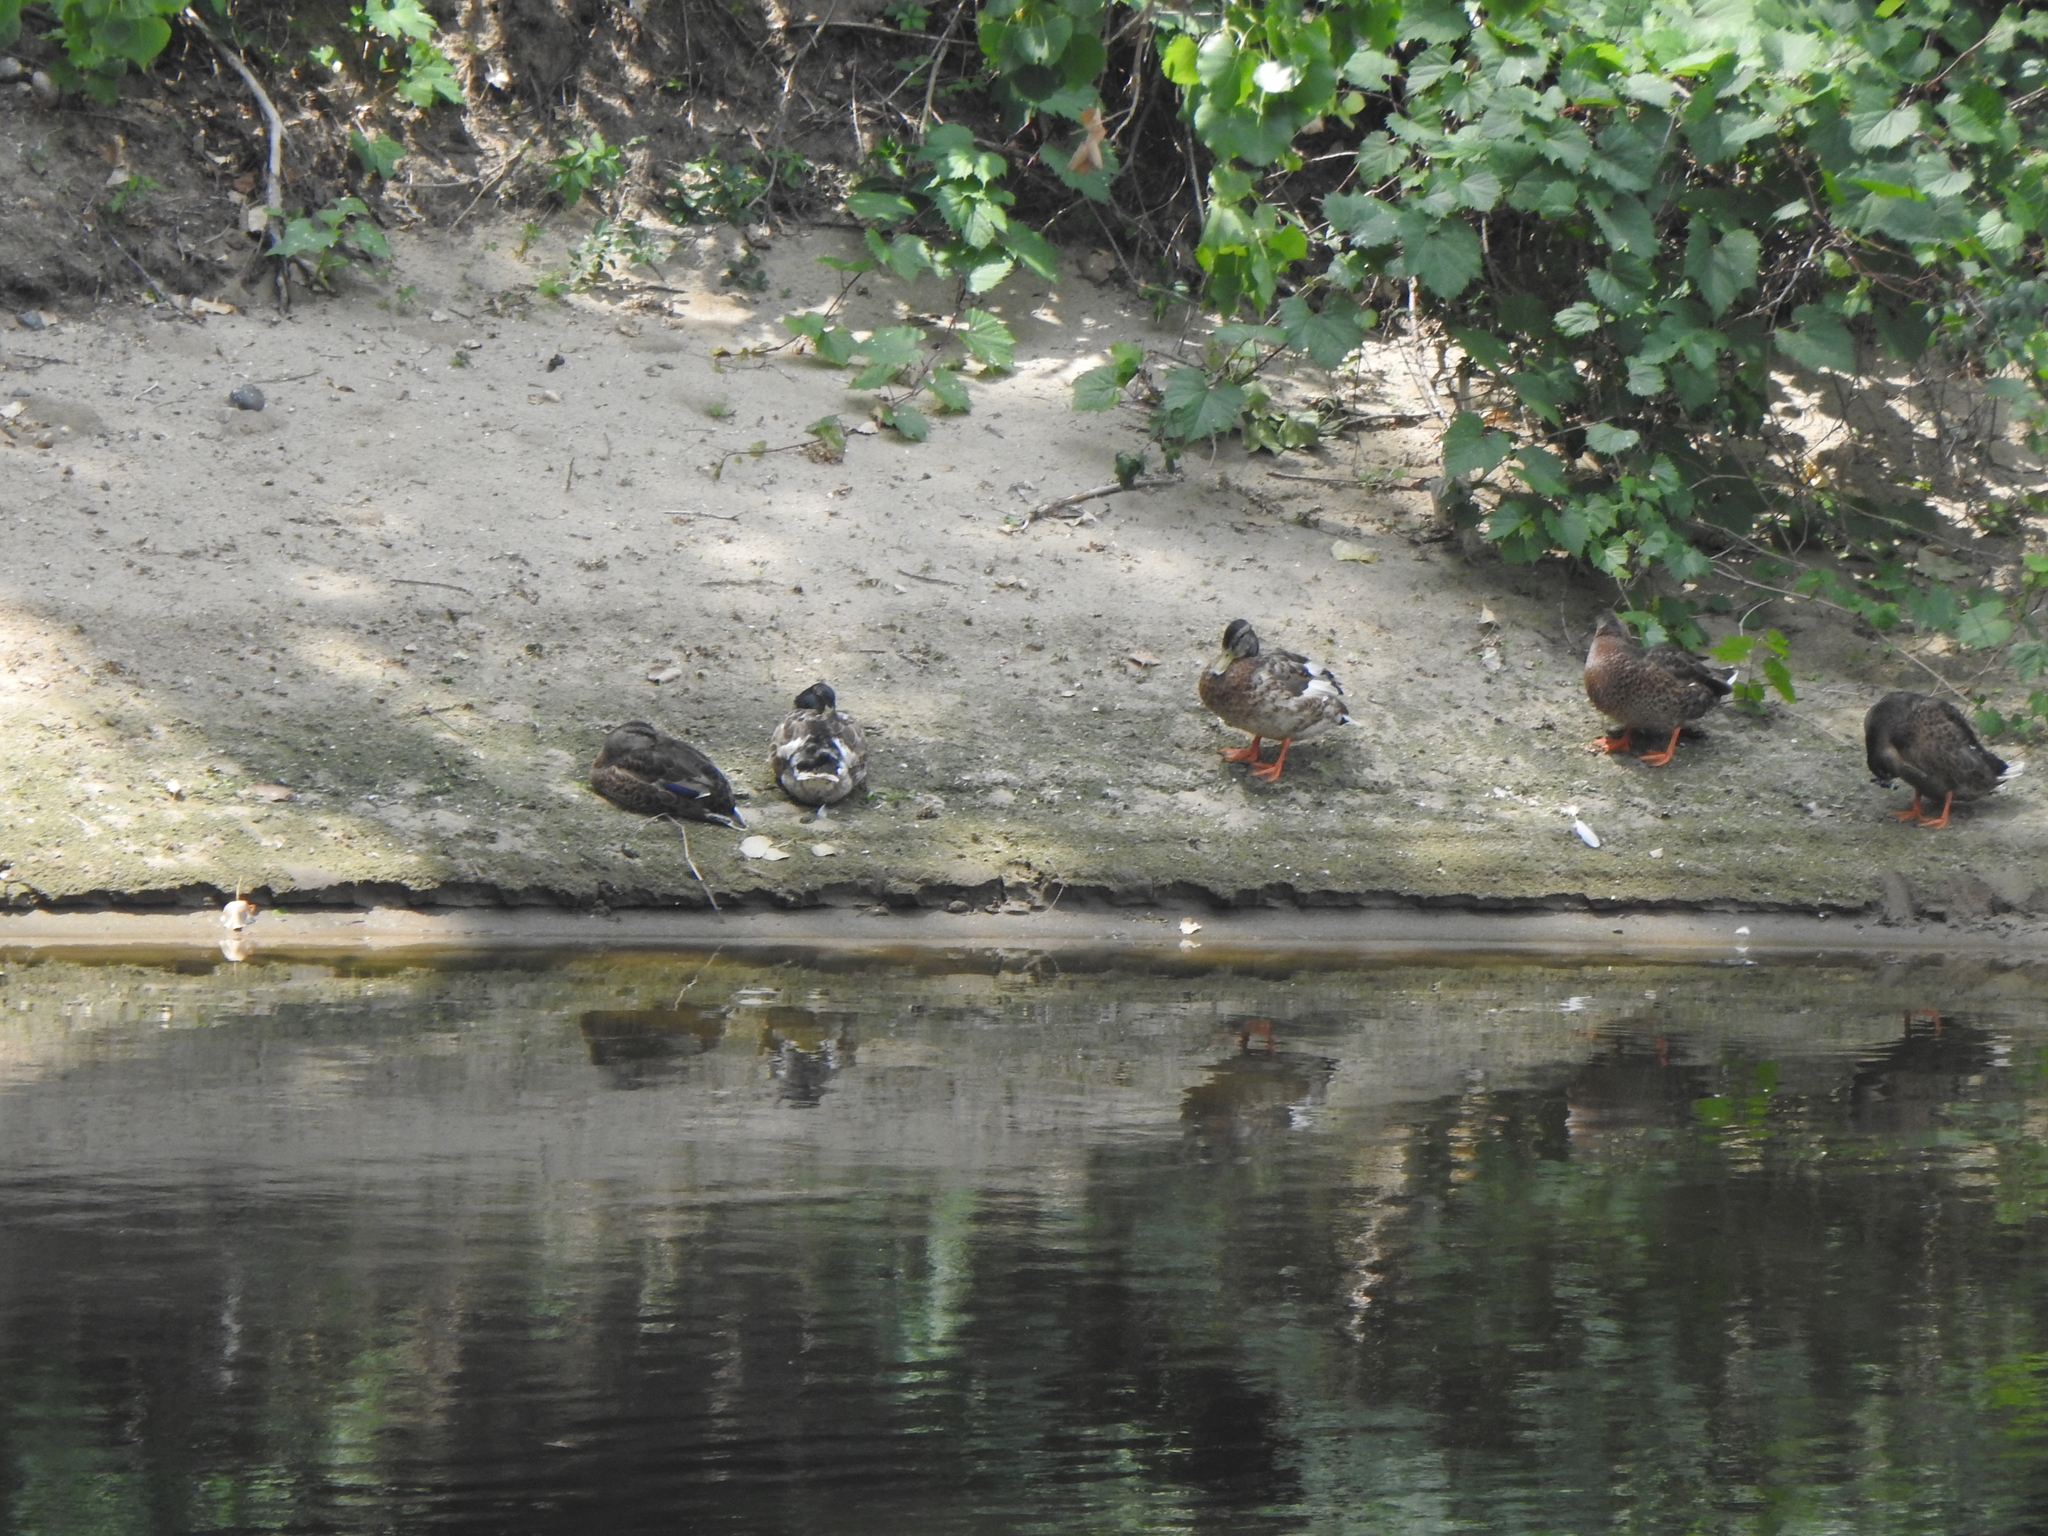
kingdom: Animalia
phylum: Chordata
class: Aves
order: Anseriformes
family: Anatidae
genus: Anas
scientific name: Anas platyrhynchos
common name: Mallard
